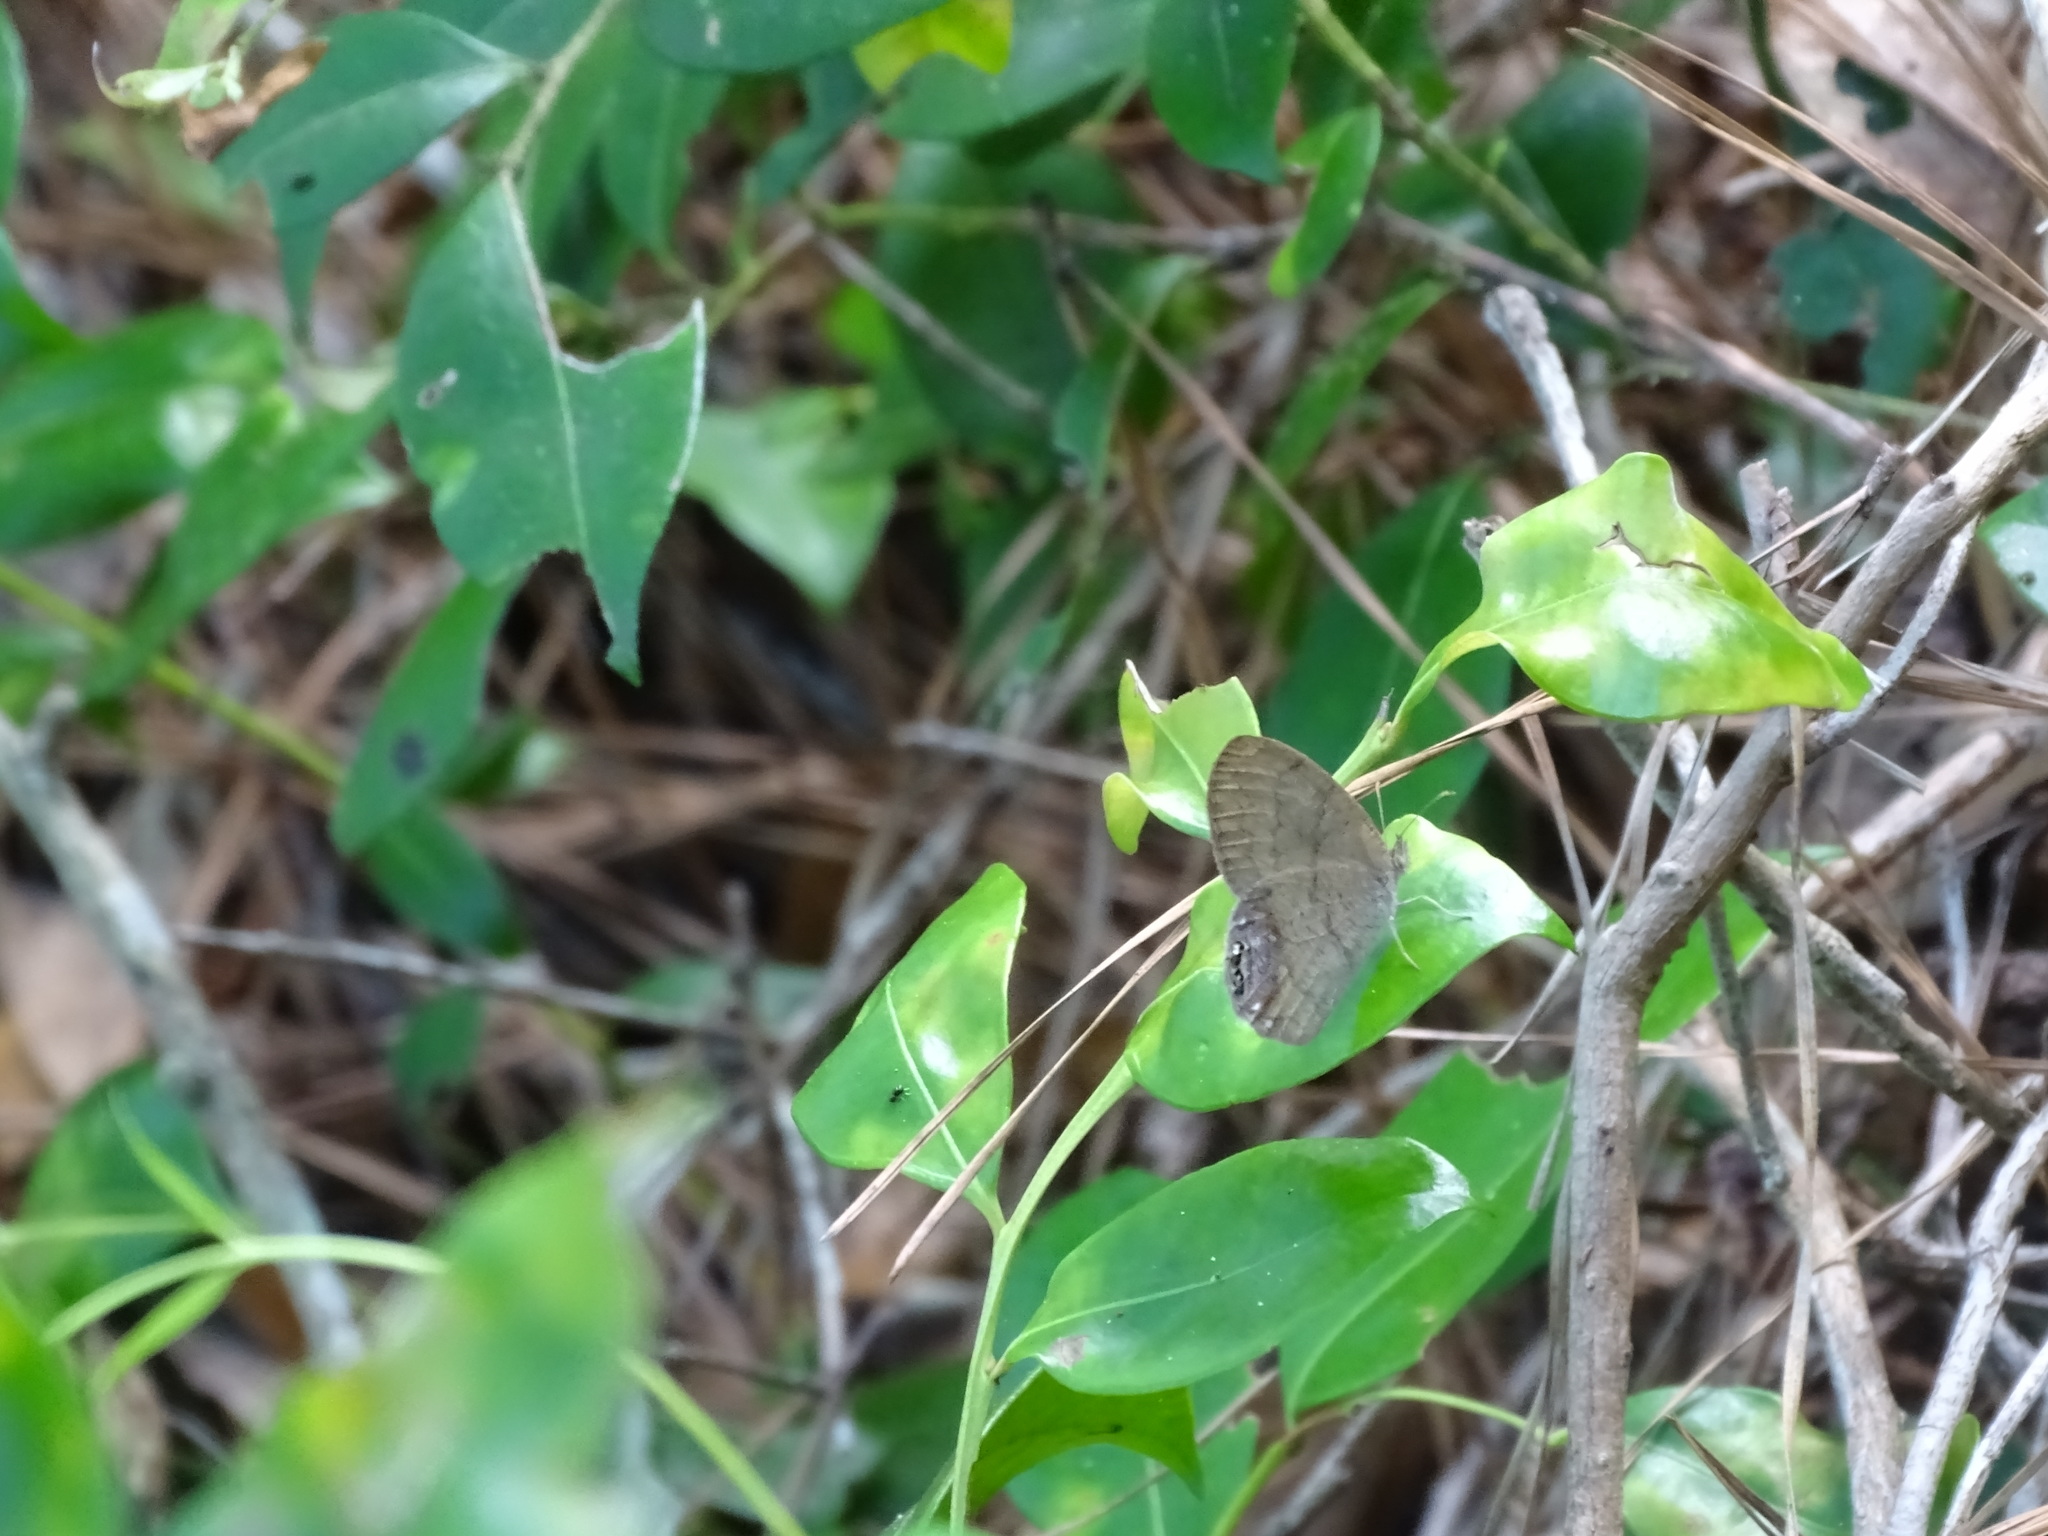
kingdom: Animalia
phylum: Arthropoda
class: Insecta
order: Lepidoptera
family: Nymphalidae
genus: Euptychia
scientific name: Euptychia cornelius
